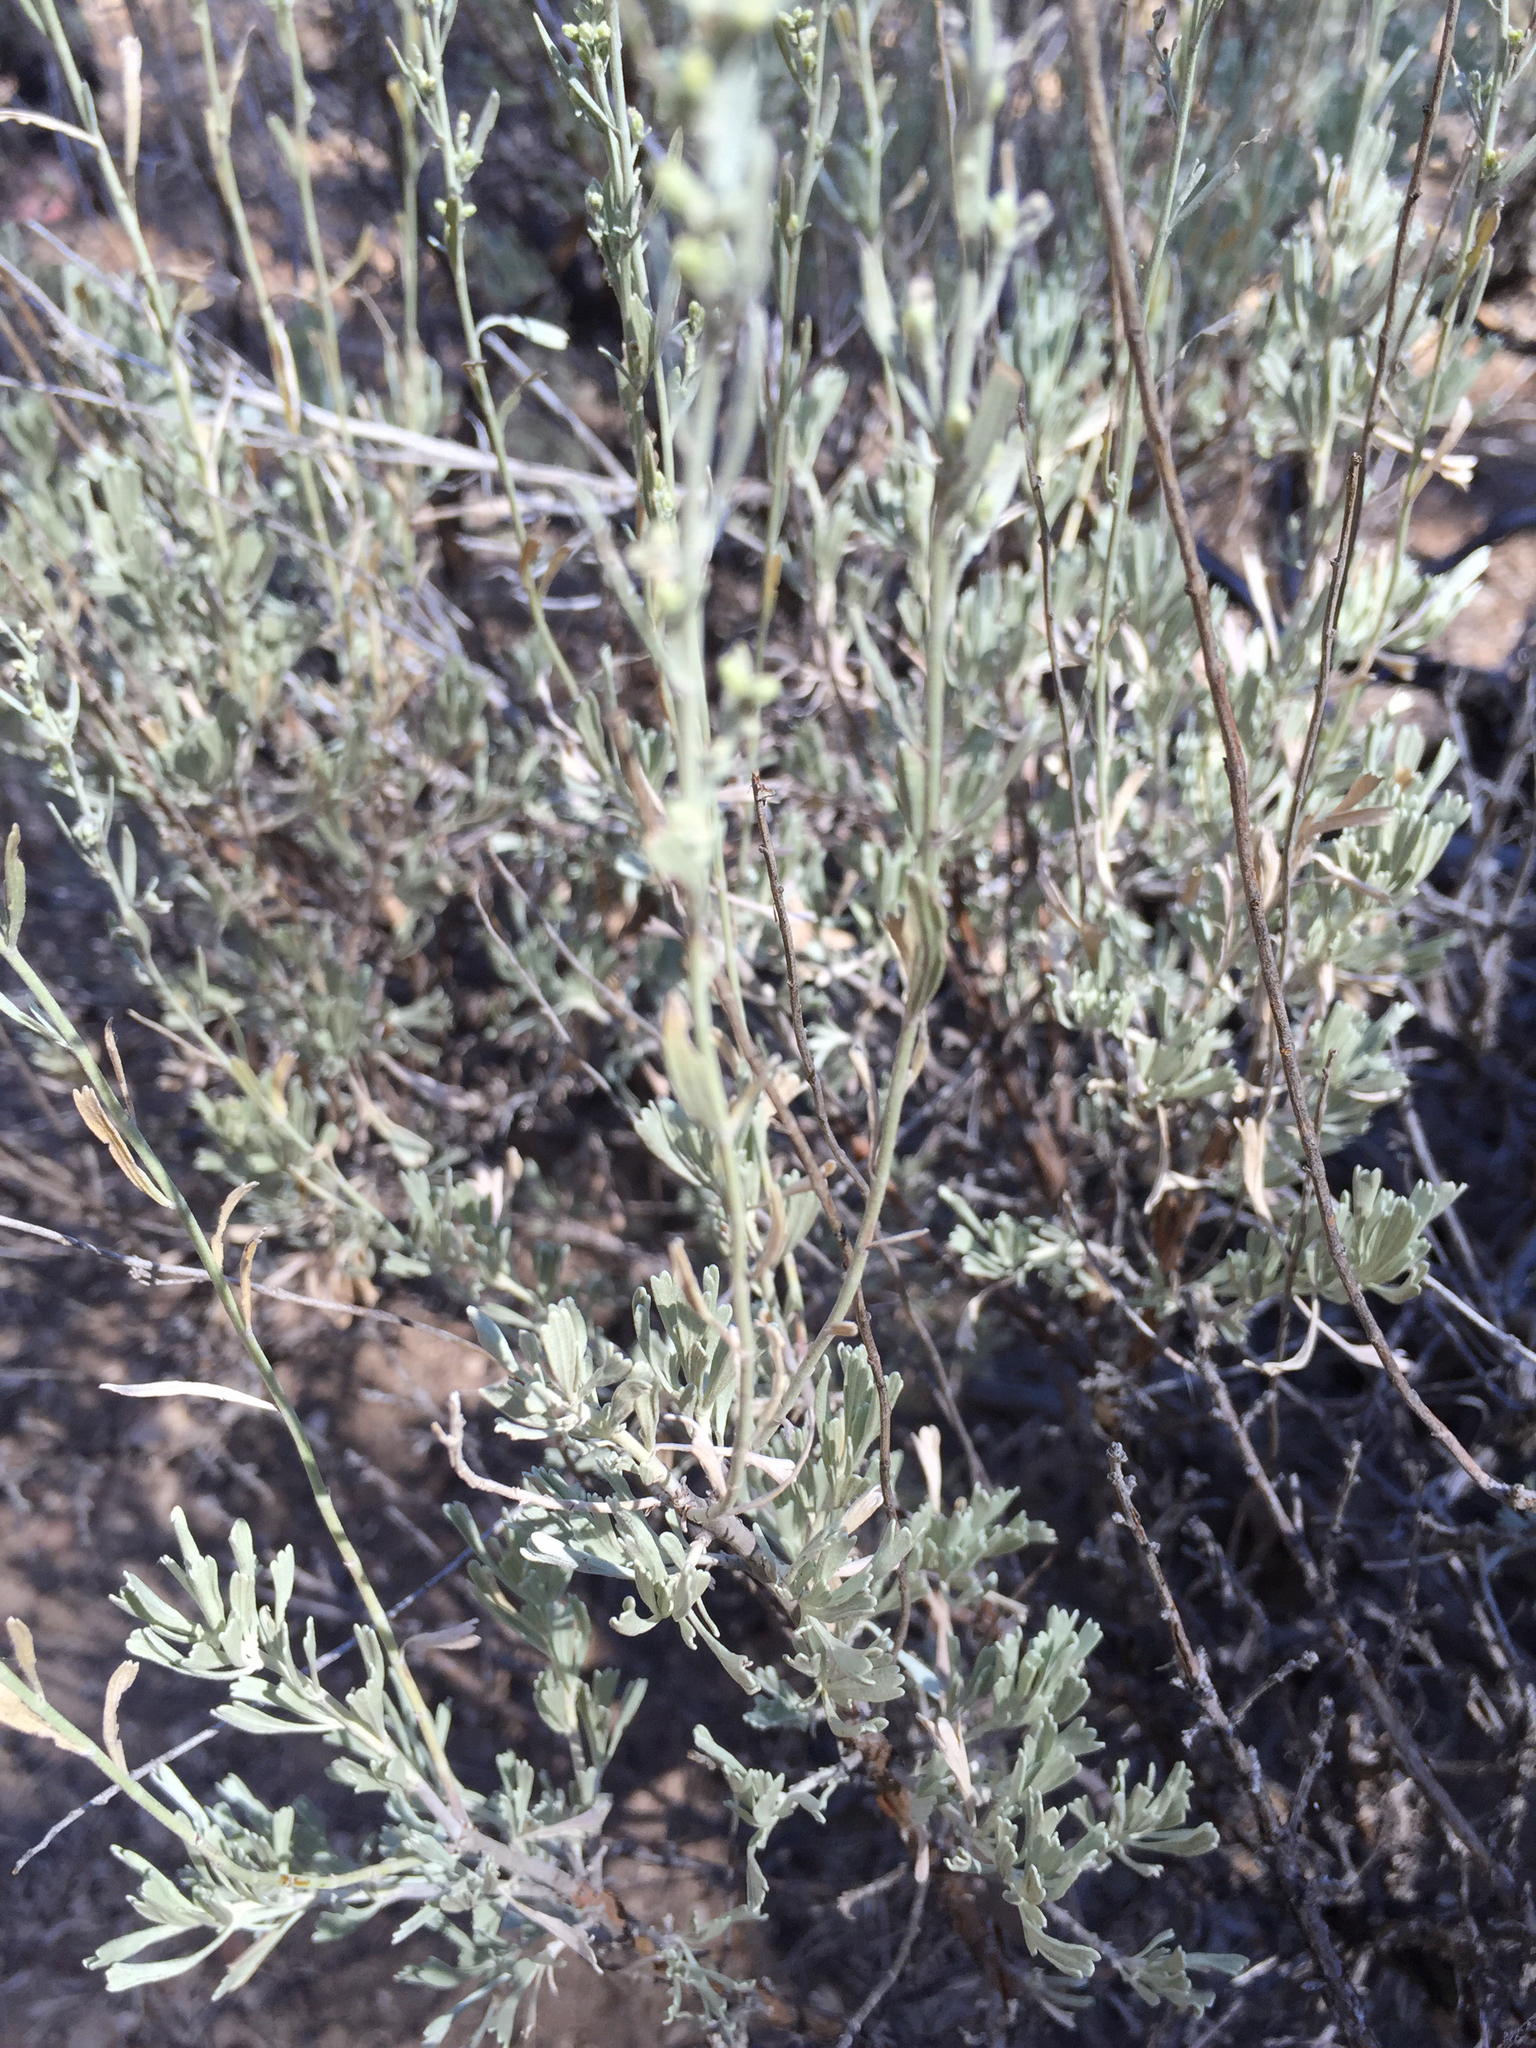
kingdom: Plantae
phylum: Tracheophyta
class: Magnoliopsida
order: Asterales
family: Asteraceae
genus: Artemisia
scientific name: Artemisia tridentata
